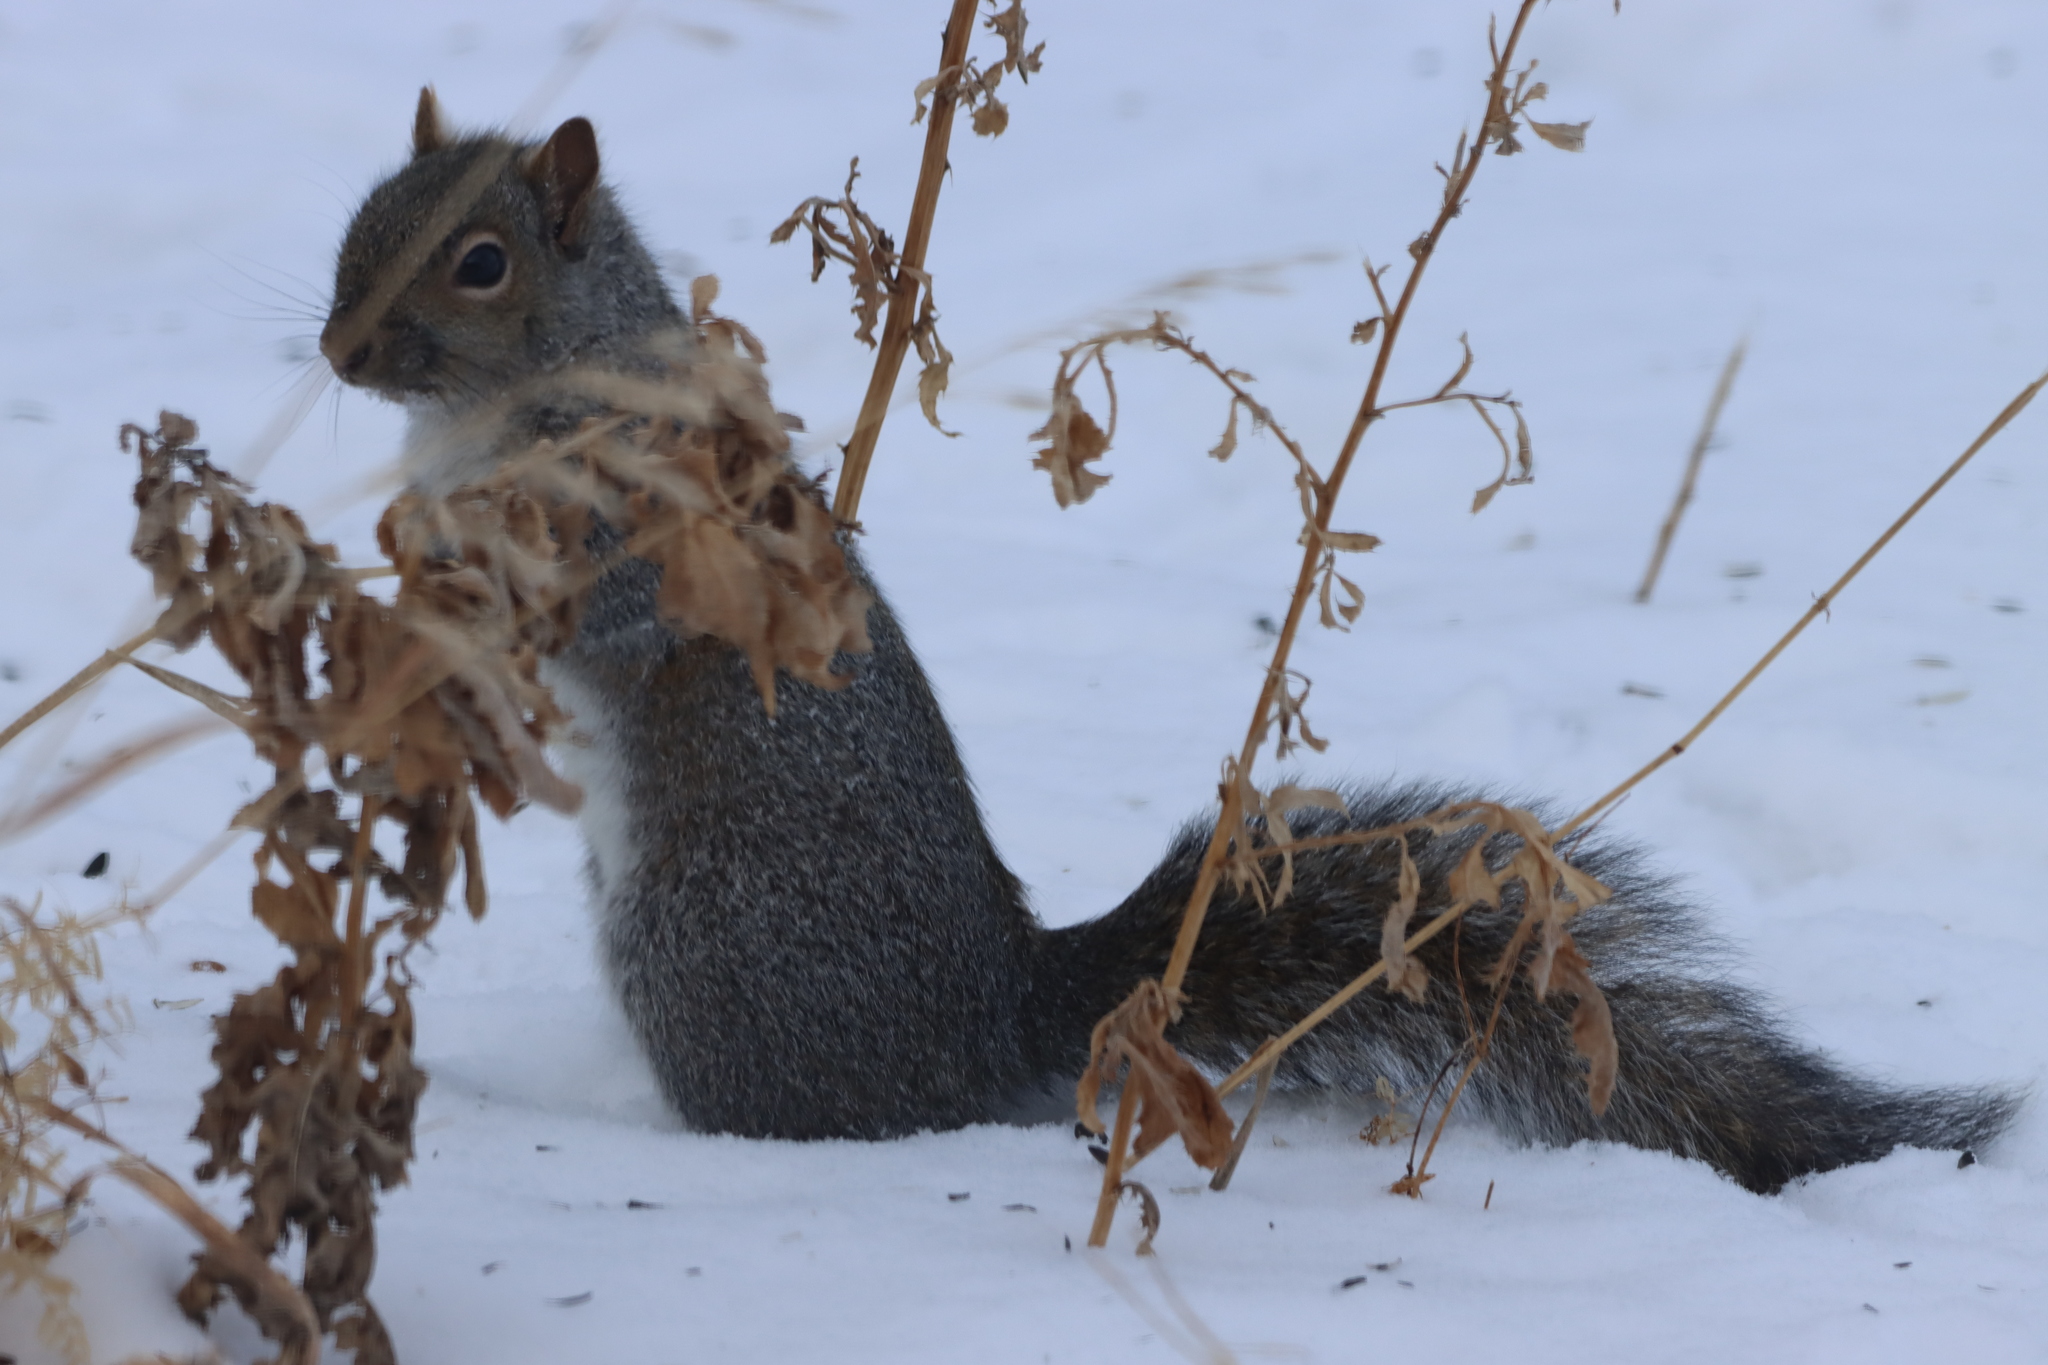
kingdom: Animalia
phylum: Chordata
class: Mammalia
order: Rodentia
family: Sciuridae
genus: Sciurus
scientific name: Sciurus carolinensis
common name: Eastern gray squirrel
